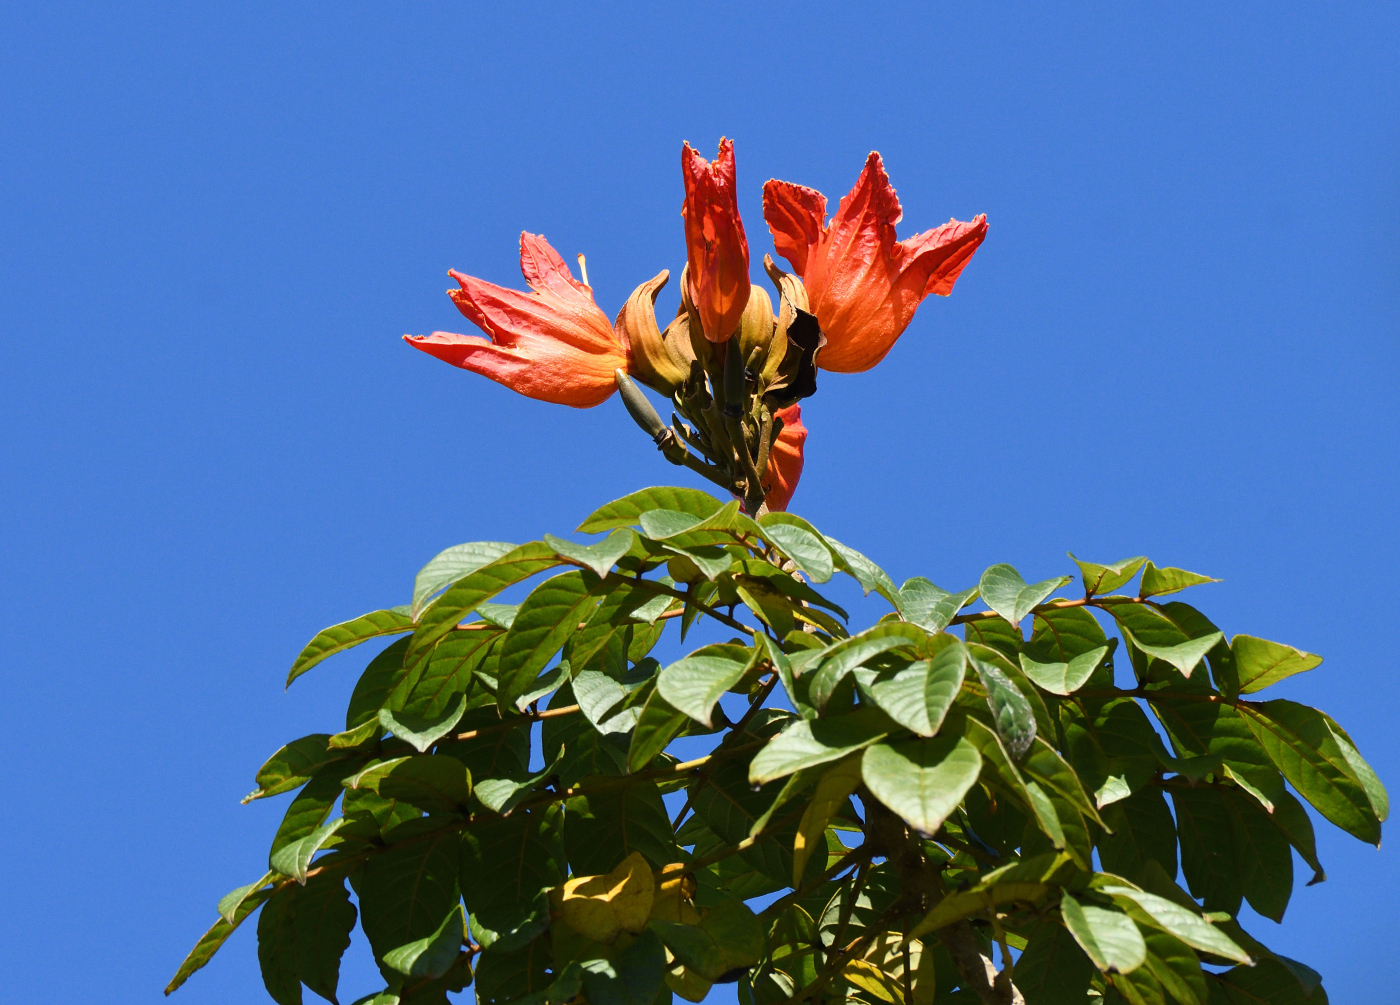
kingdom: Plantae
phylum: Tracheophyta
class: Magnoliopsida
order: Lamiales
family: Bignoniaceae
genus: Spathodea
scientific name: Spathodea campanulata
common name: African tuliptree
